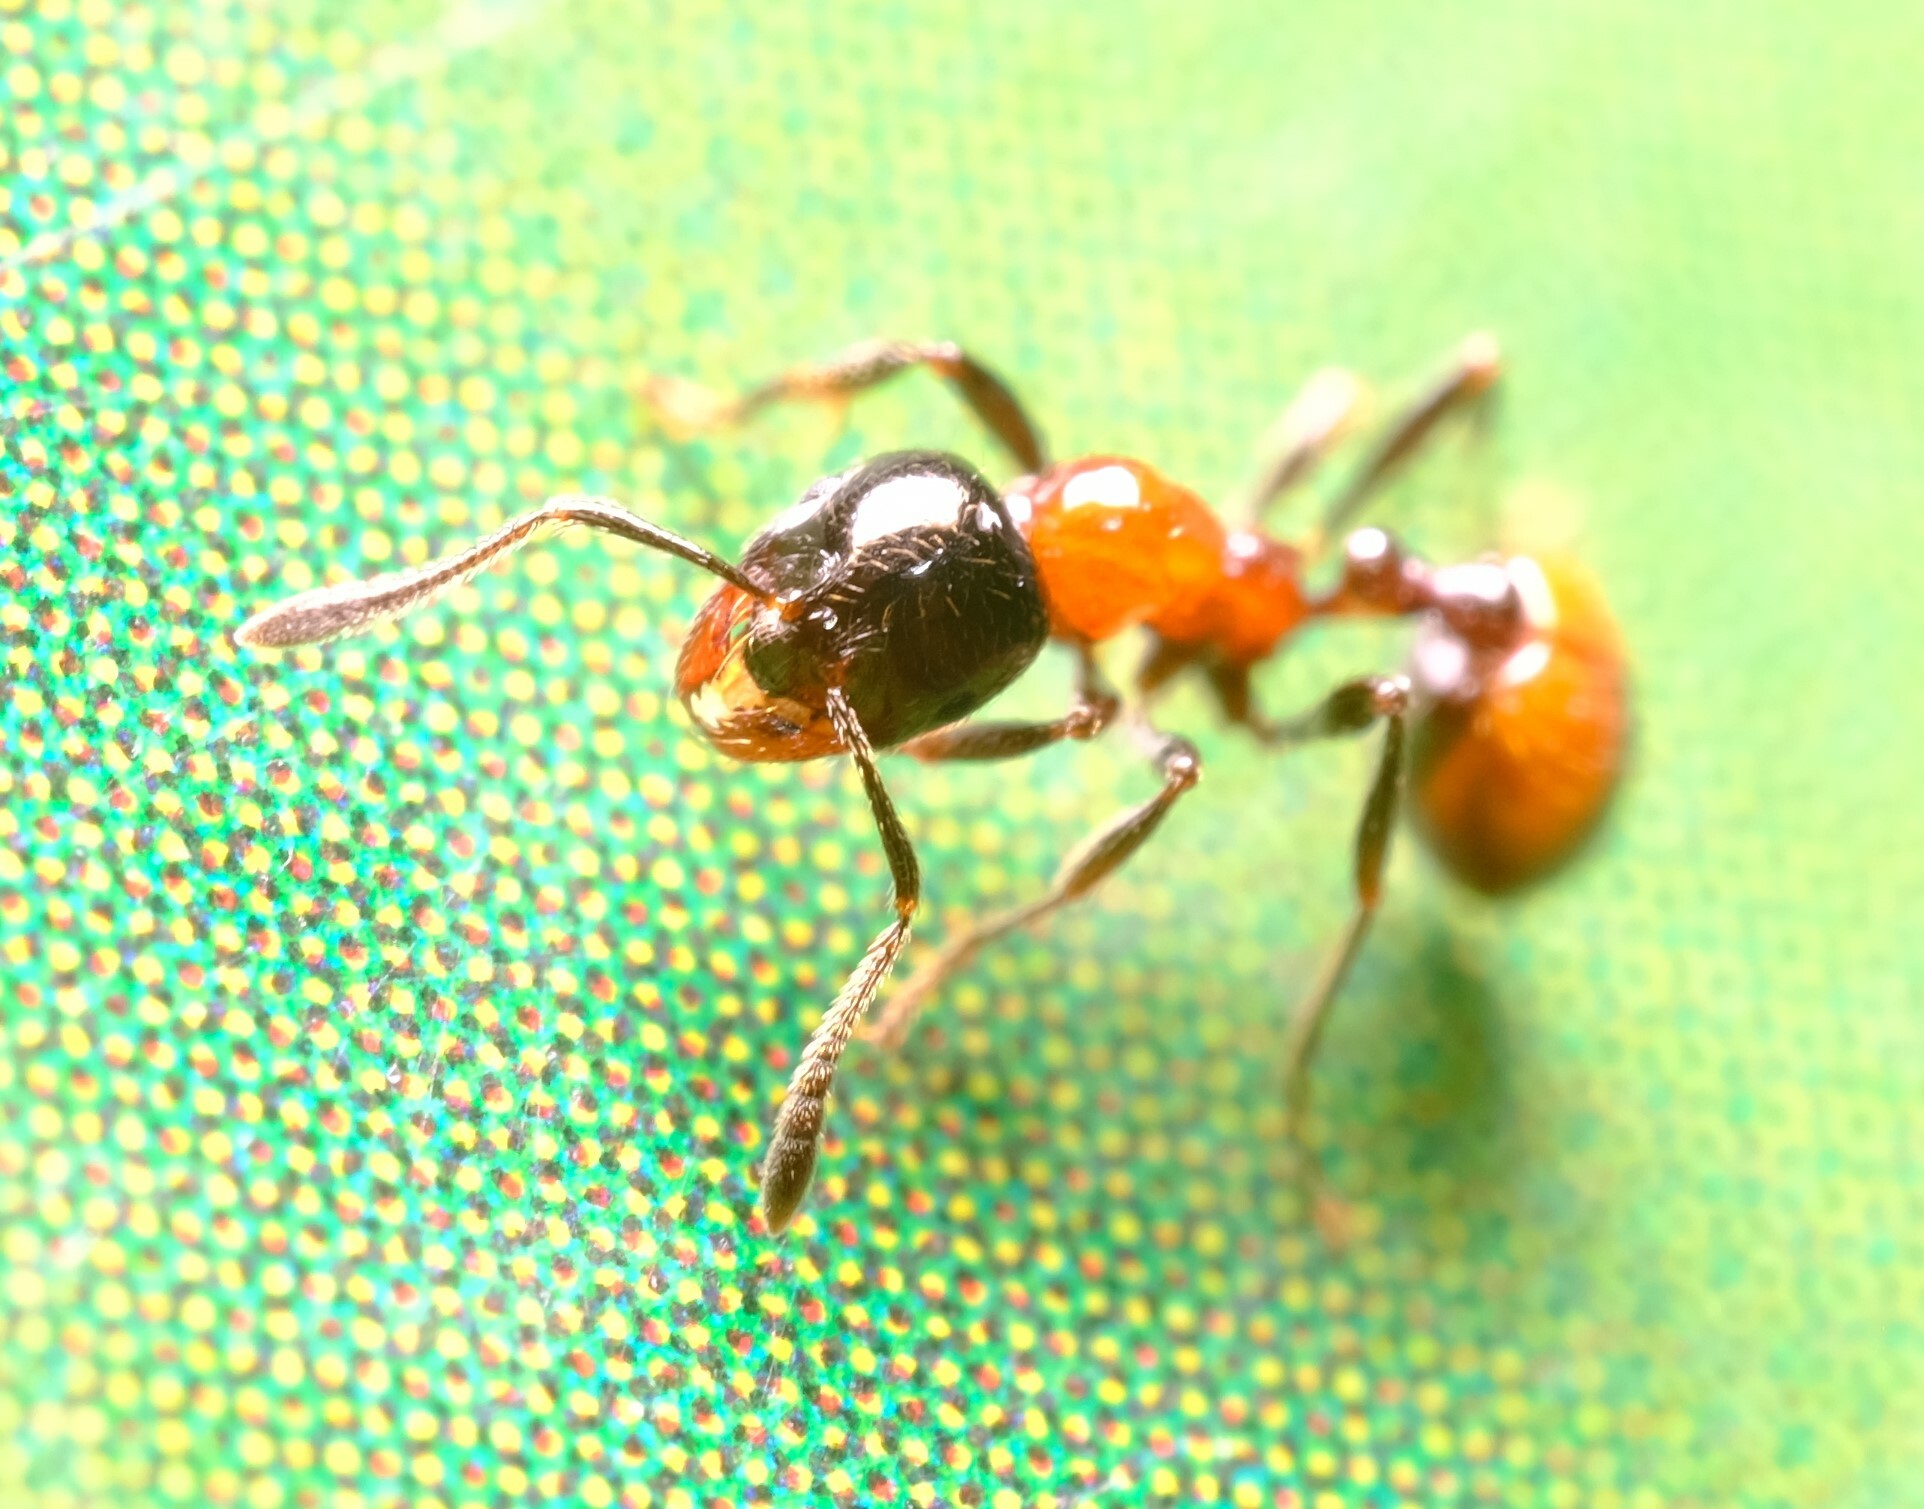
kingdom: Animalia
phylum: Arthropoda
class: Insecta
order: Hymenoptera
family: Formicidae
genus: Chelaner
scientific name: Chelaner
